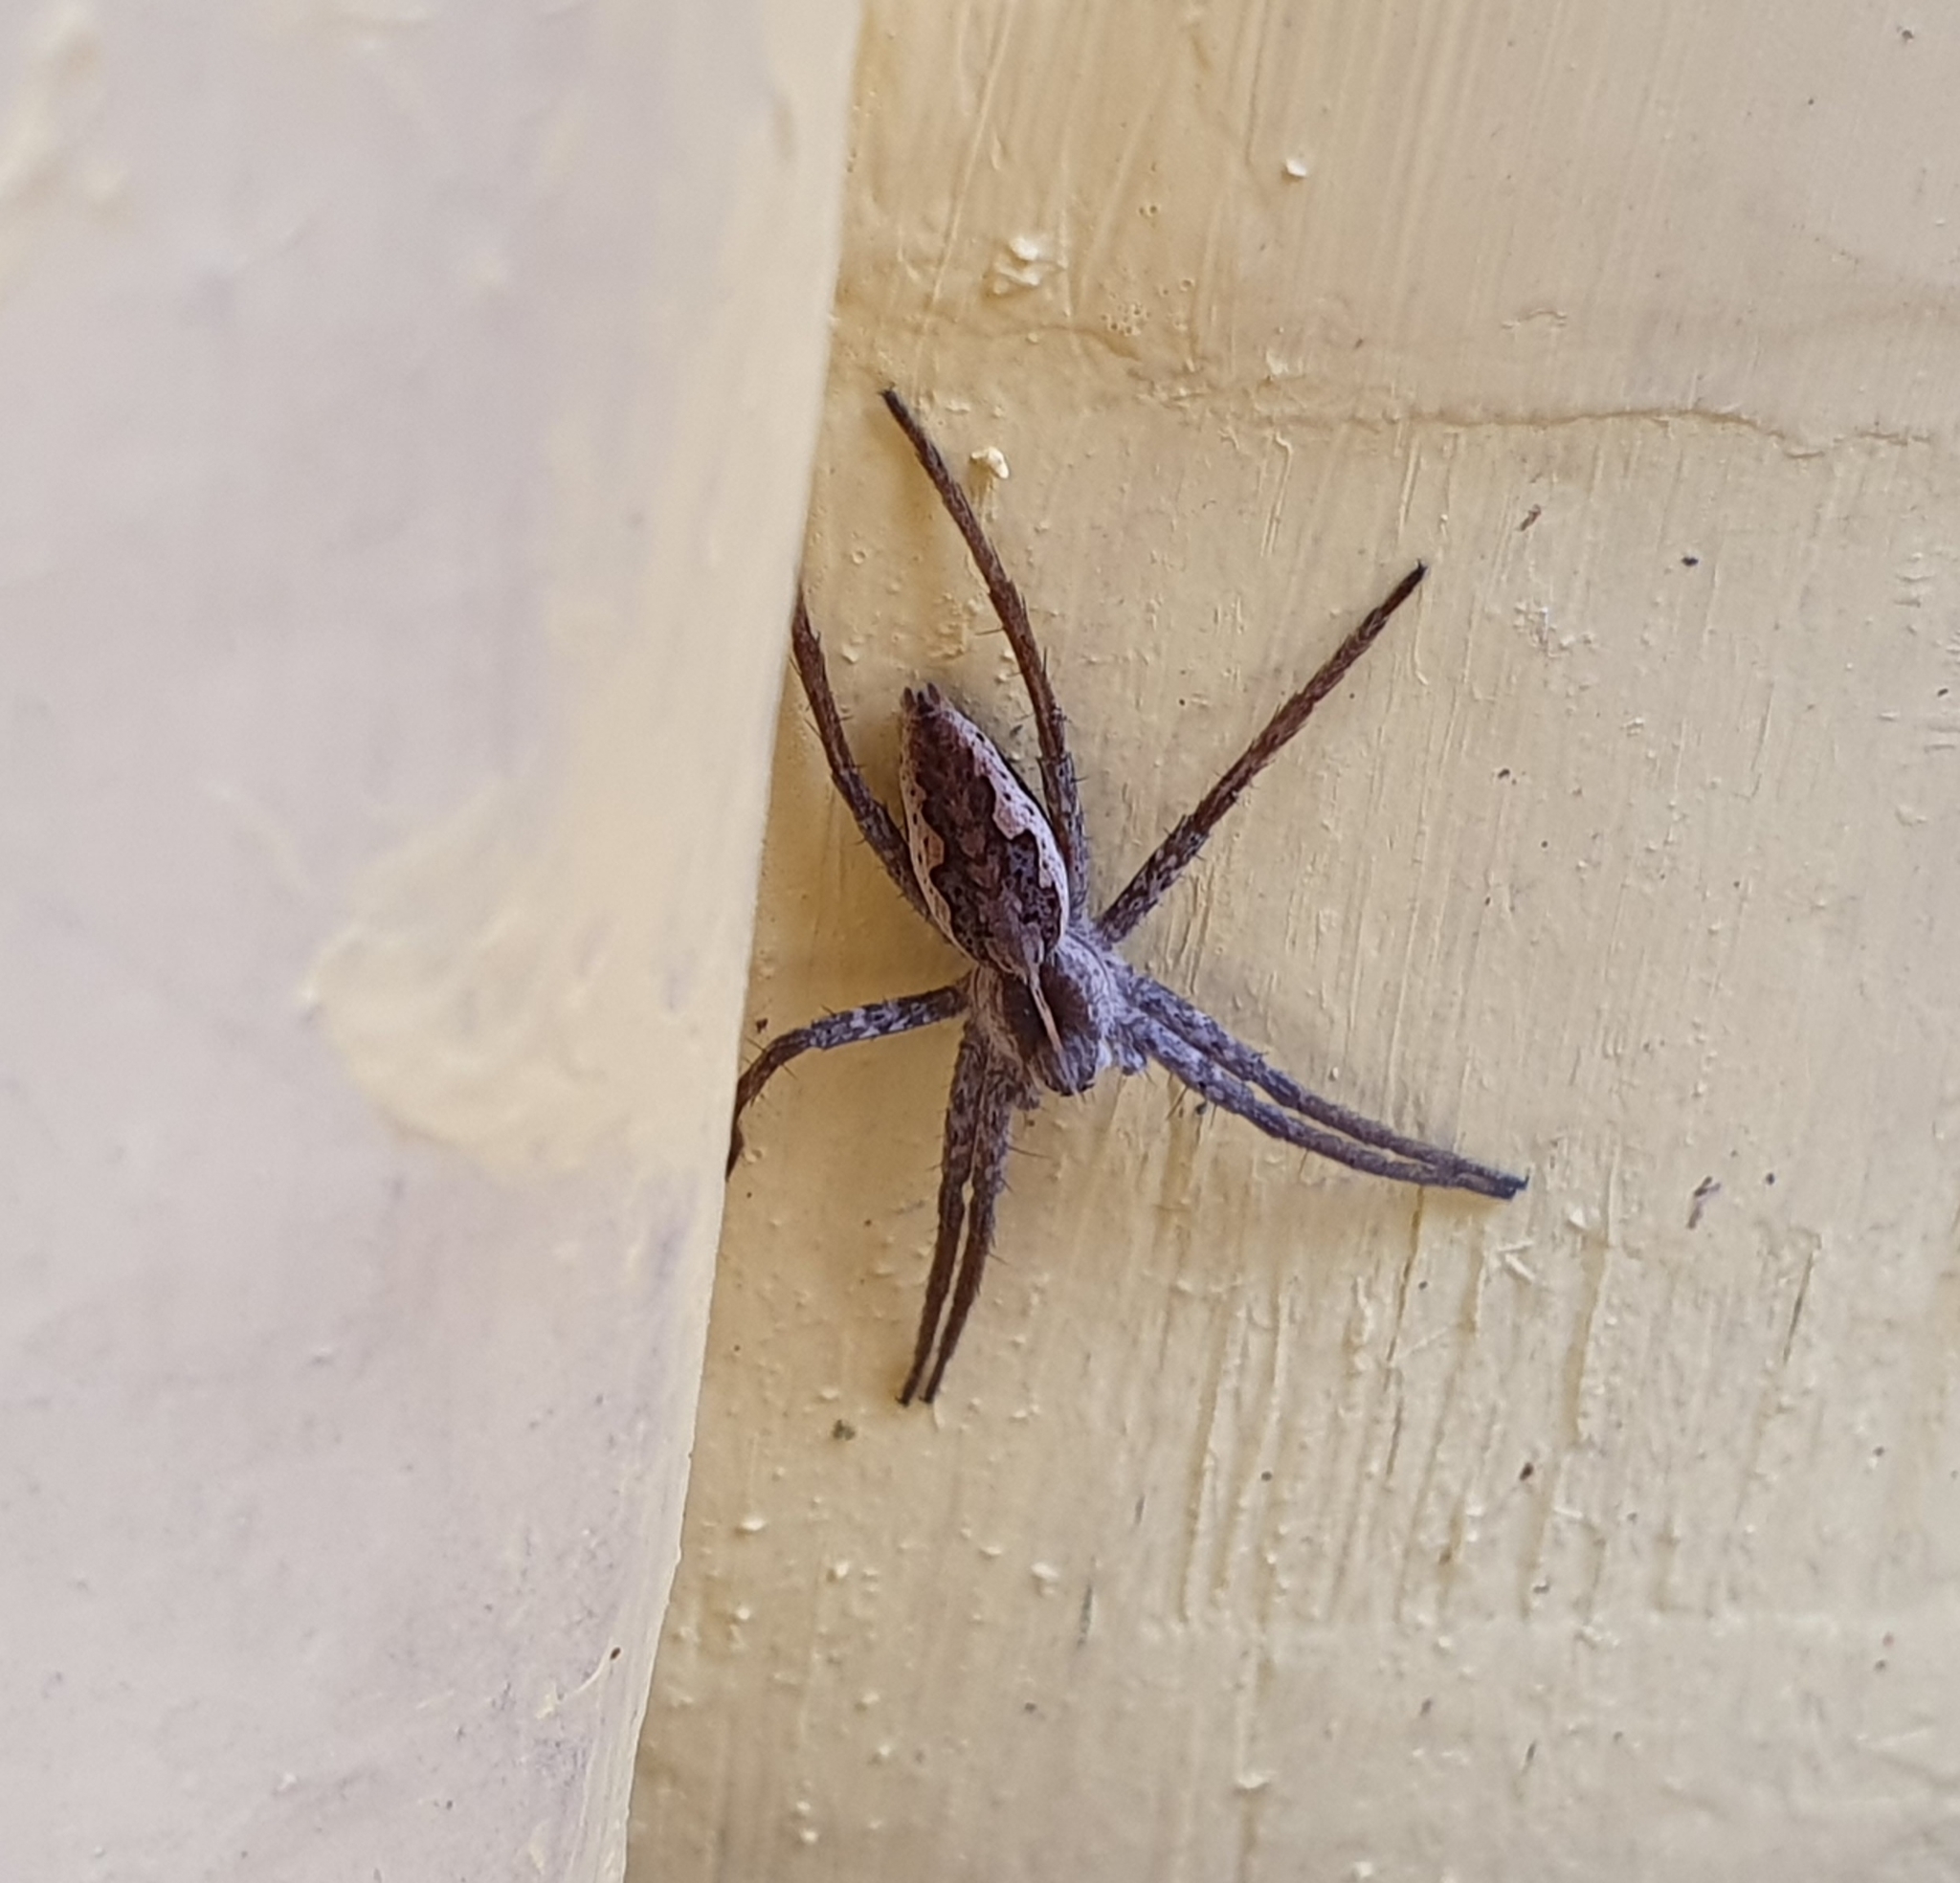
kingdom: Animalia
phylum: Arthropoda
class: Arachnida
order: Araneae
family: Pisauridae
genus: Pisaura
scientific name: Pisaura mirabilis
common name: Tent spider
